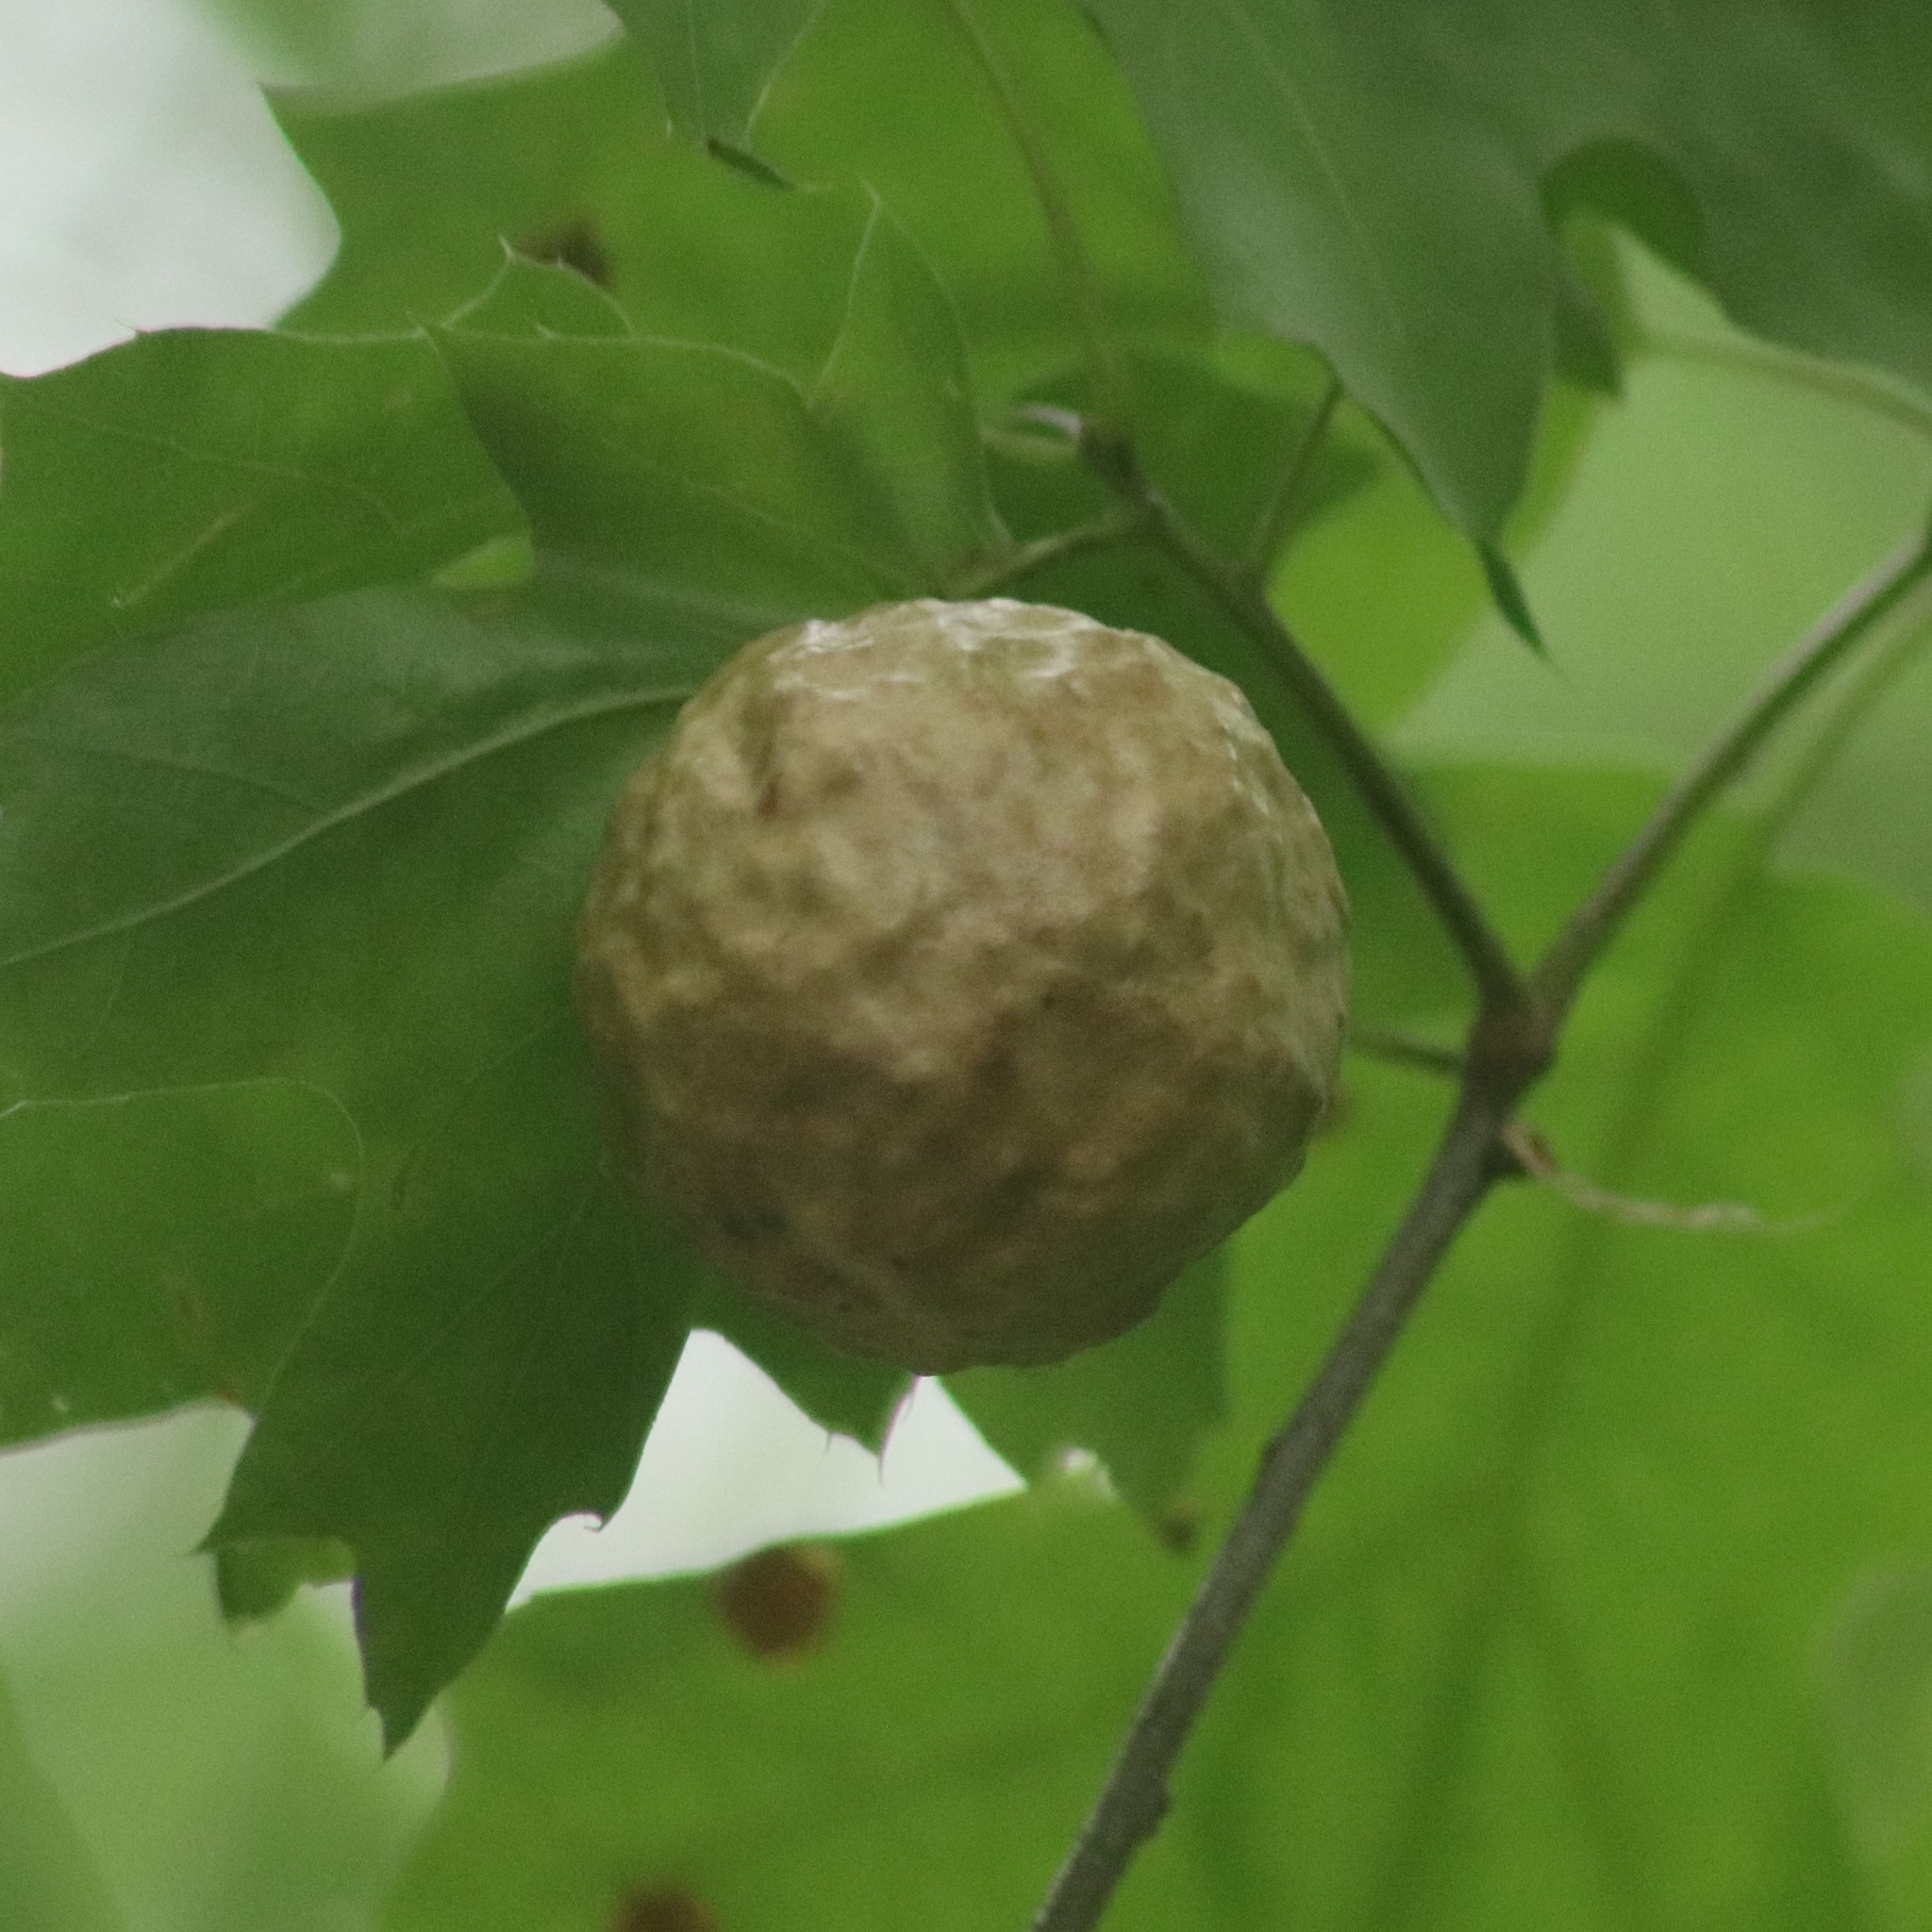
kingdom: Animalia
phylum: Arthropoda
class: Insecta
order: Hymenoptera
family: Cynipidae
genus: Amphibolips
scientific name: Amphibolips
